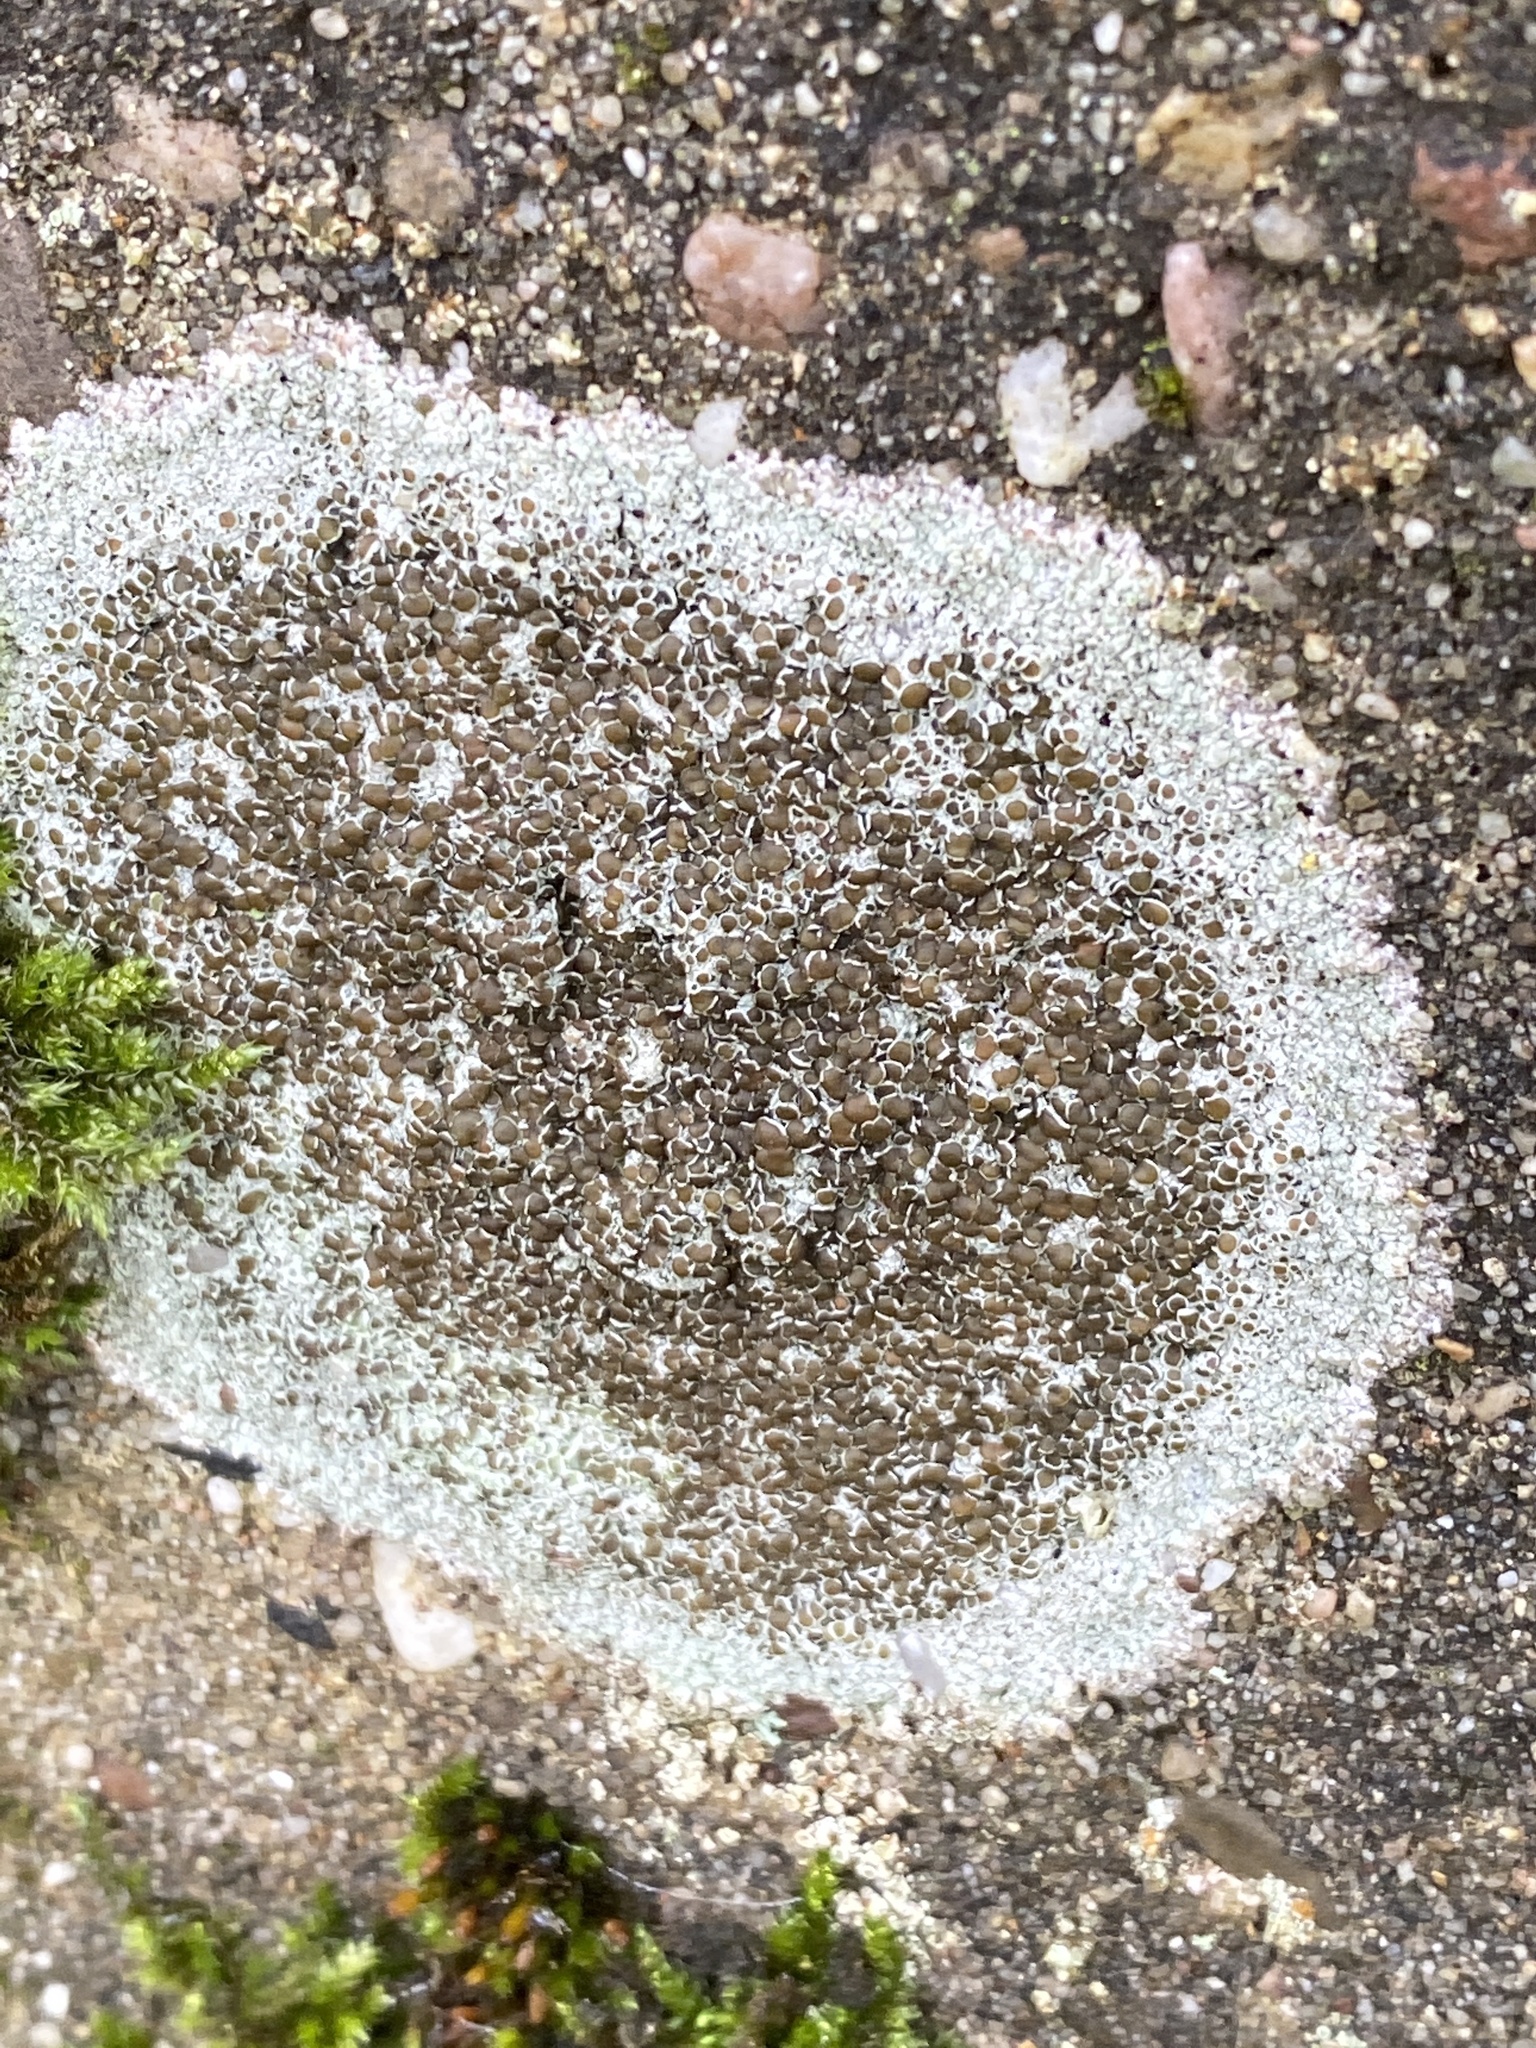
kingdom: Fungi
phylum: Ascomycota
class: Lecanoromycetes
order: Lecanorales
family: Lecanoraceae
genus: Lecanora
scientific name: Lecanora campestris
